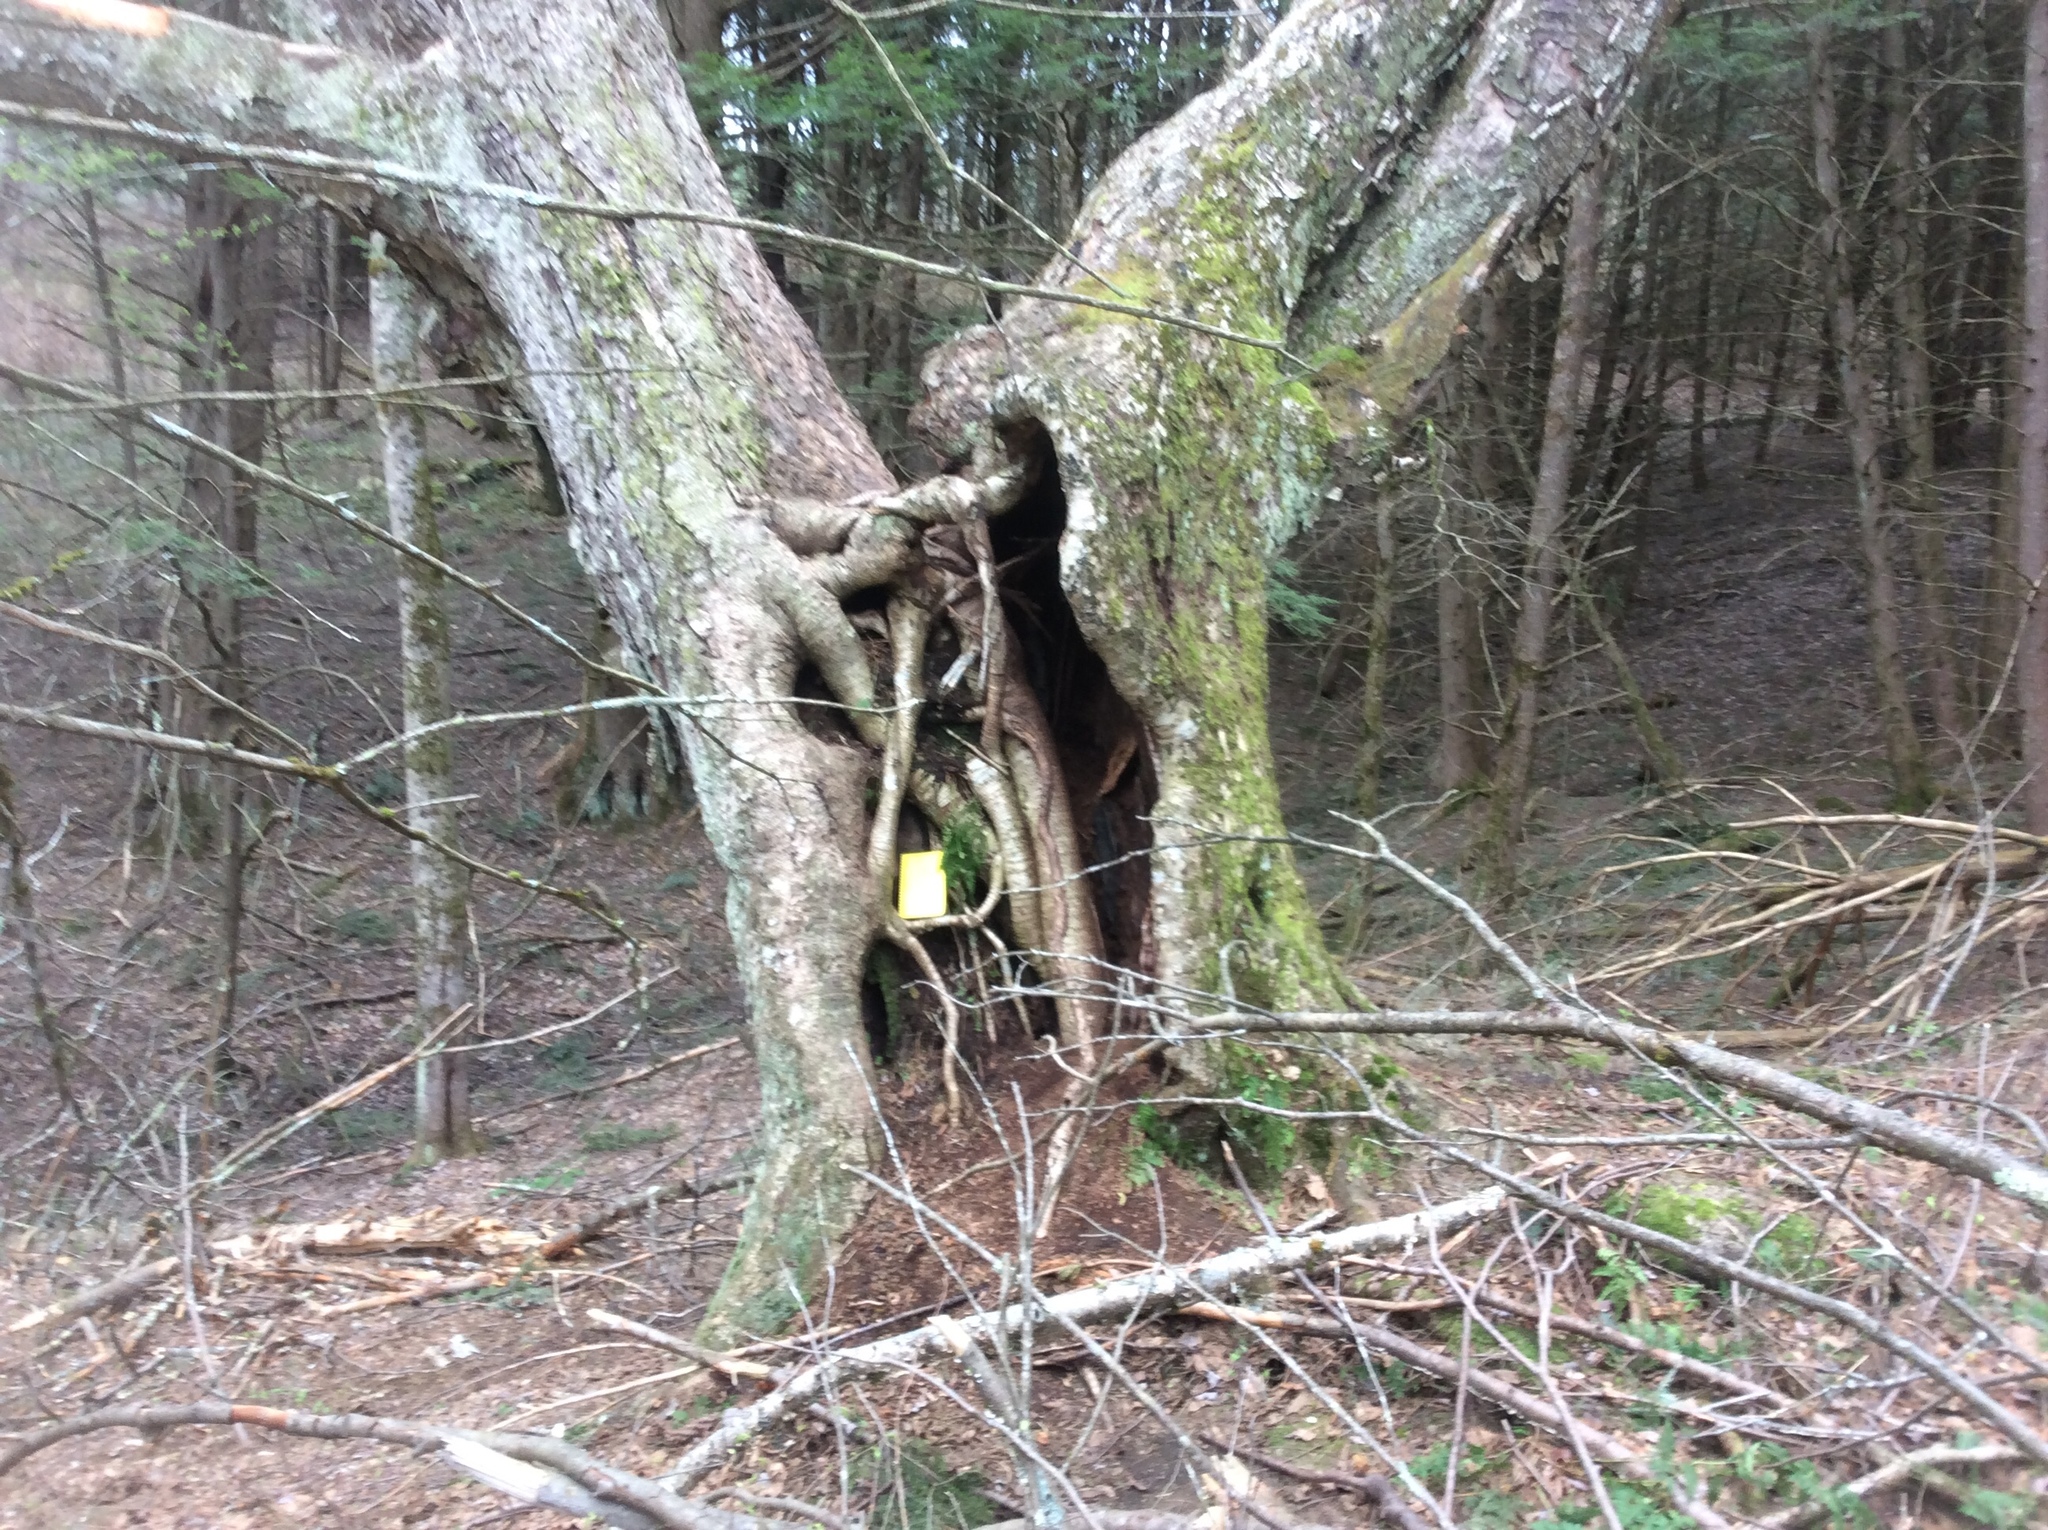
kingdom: Plantae
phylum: Tracheophyta
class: Magnoliopsida
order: Fagales
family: Betulaceae
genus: Betula
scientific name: Betula alleghaniensis
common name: Yellow birch
